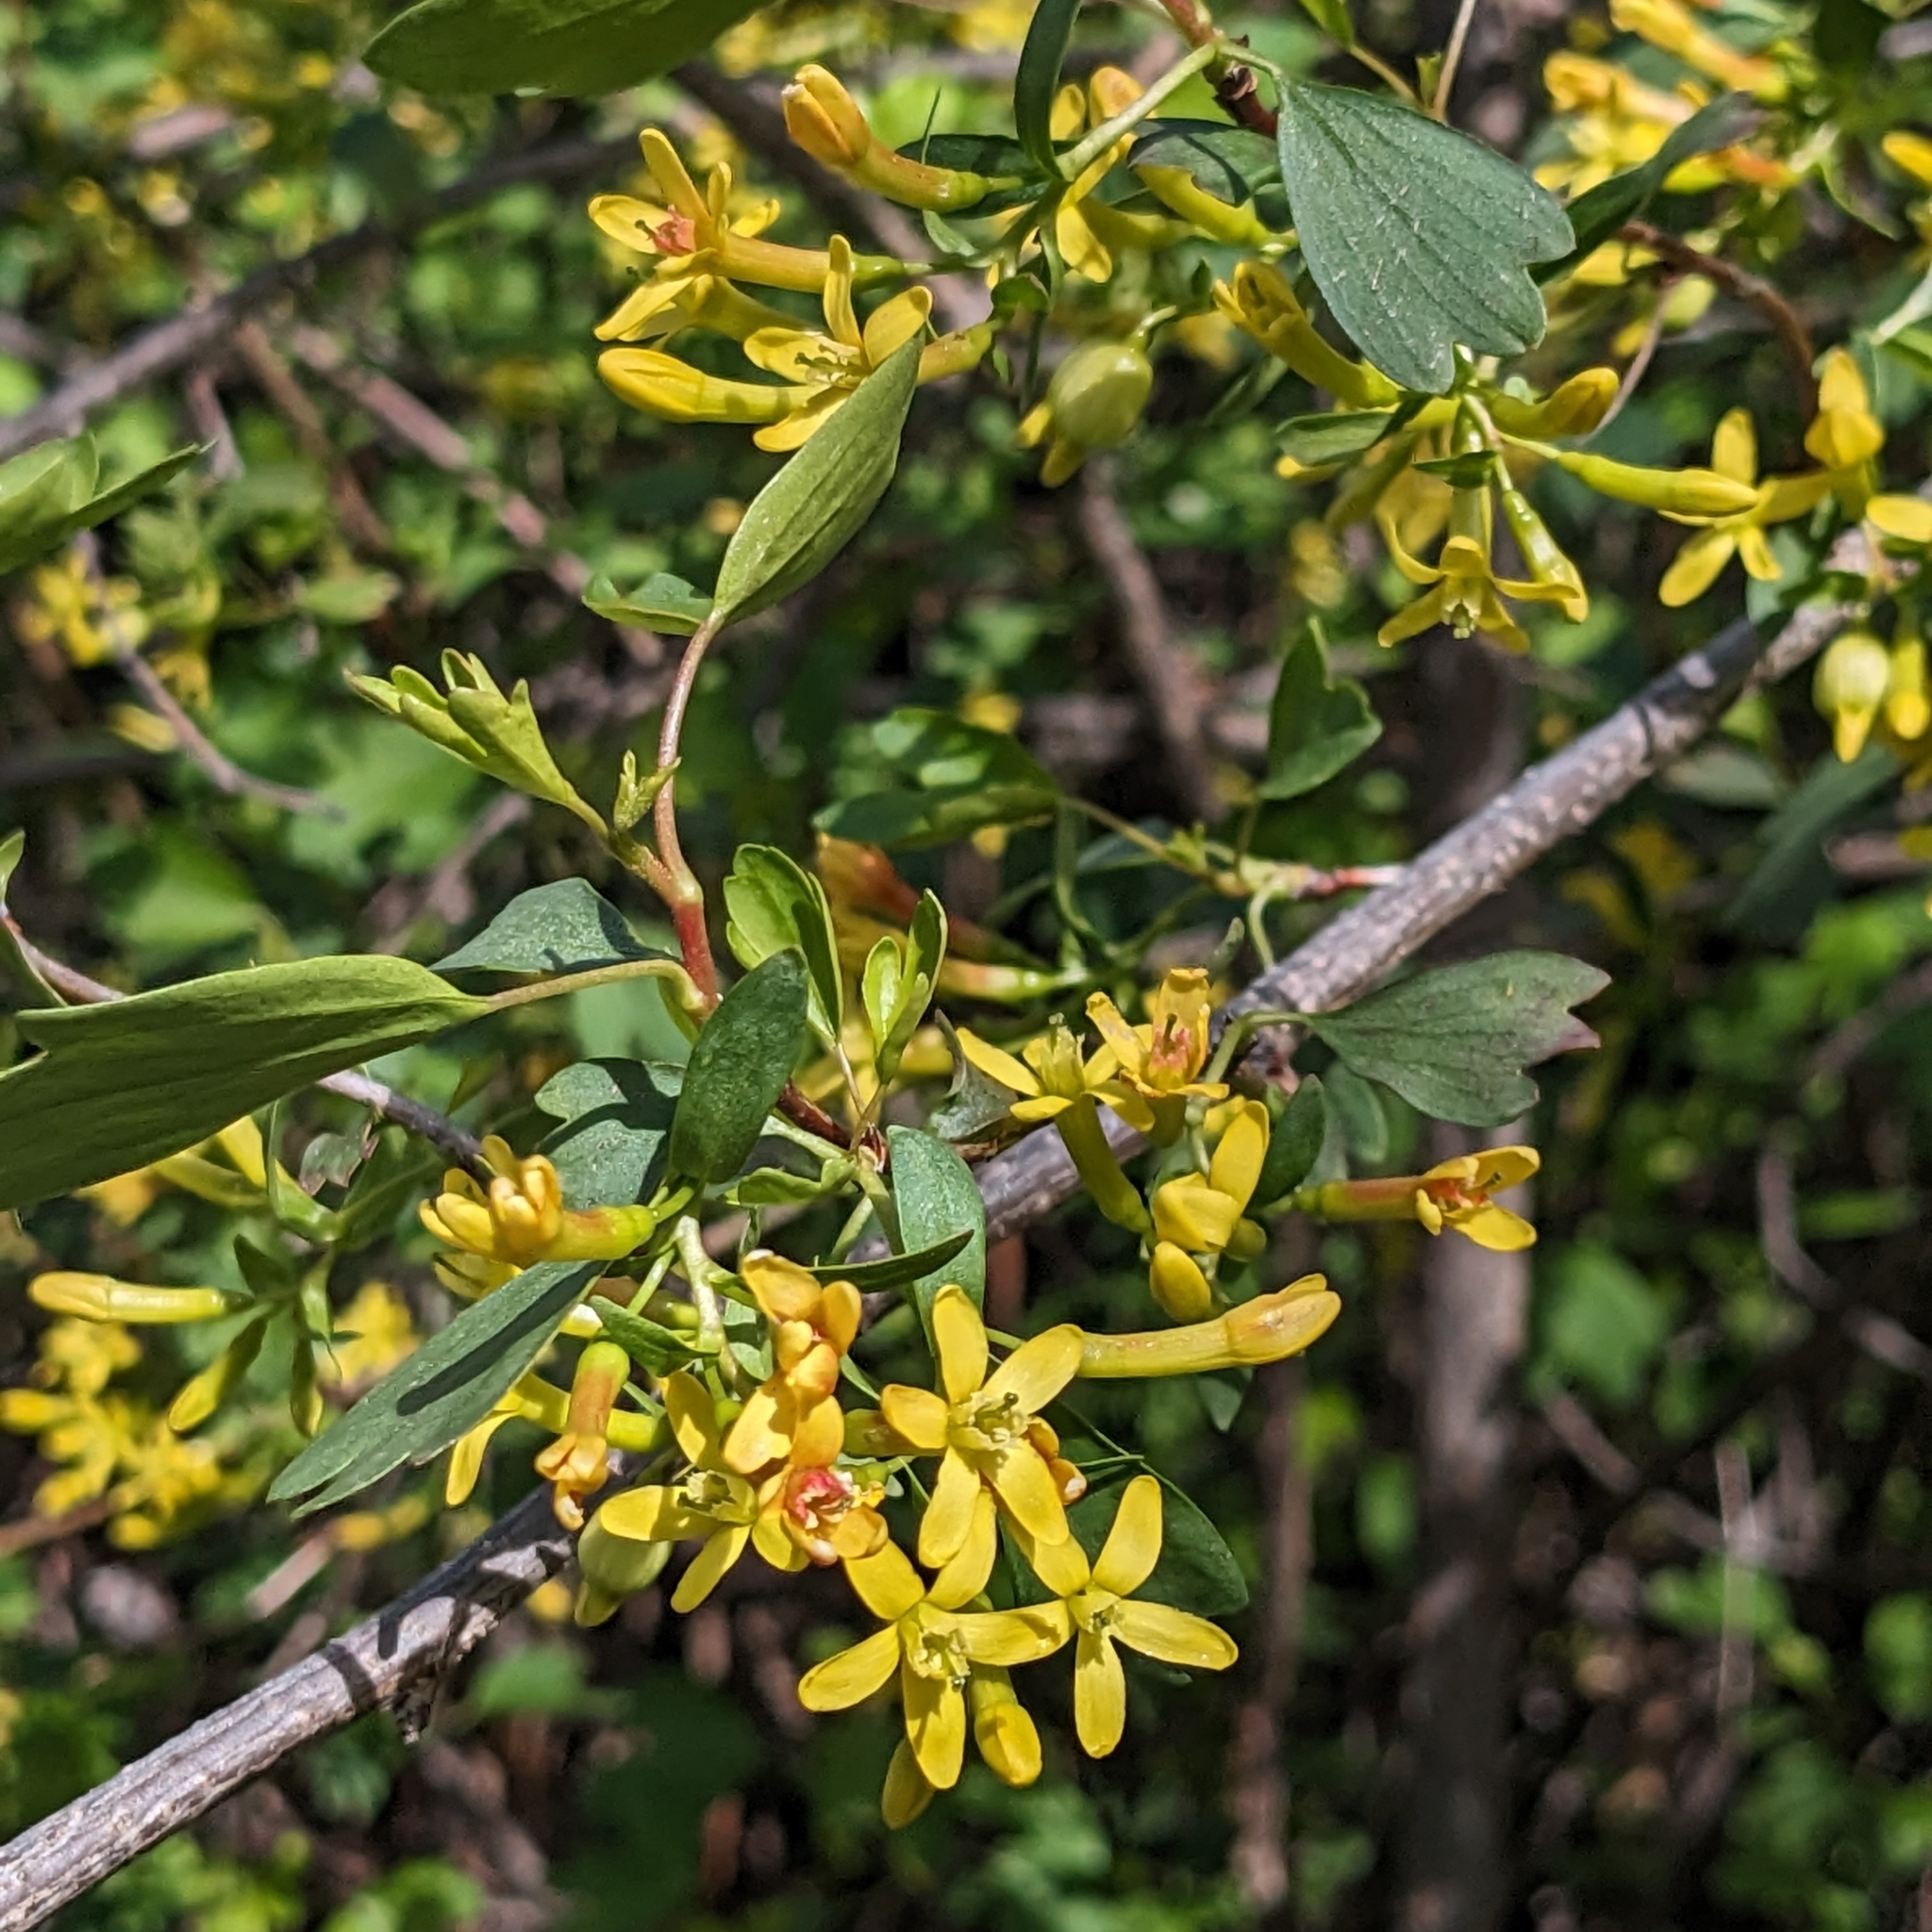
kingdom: Plantae
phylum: Tracheophyta
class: Magnoliopsida
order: Saxifragales
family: Grossulariaceae
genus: Ribes
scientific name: Ribes aureum
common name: Golden currant
